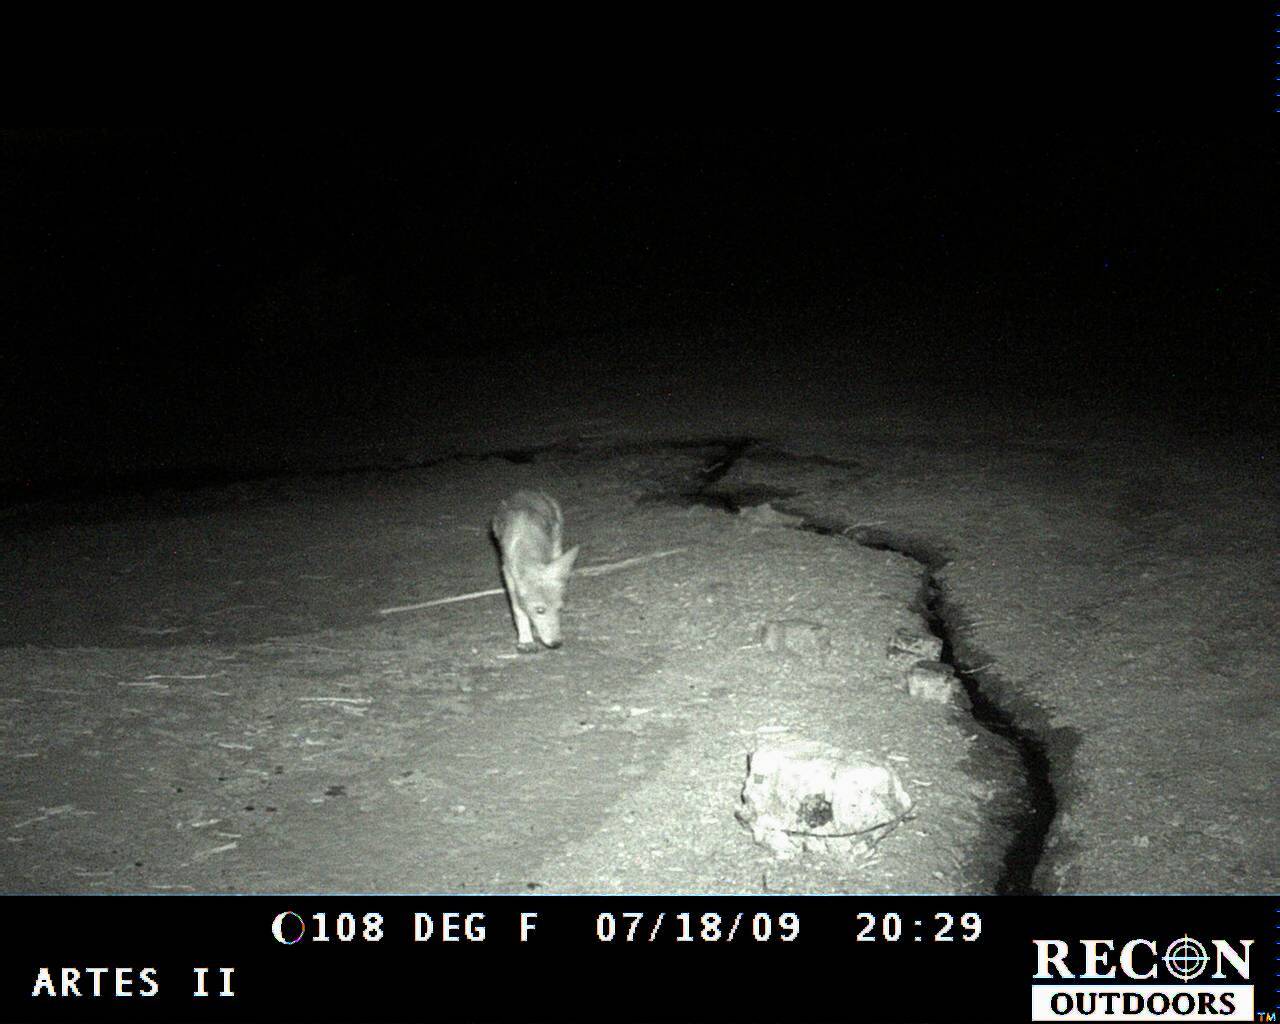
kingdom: Animalia
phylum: Chordata
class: Mammalia
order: Carnivora
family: Canidae
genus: Canis
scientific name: Canis latrans
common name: Coyote
